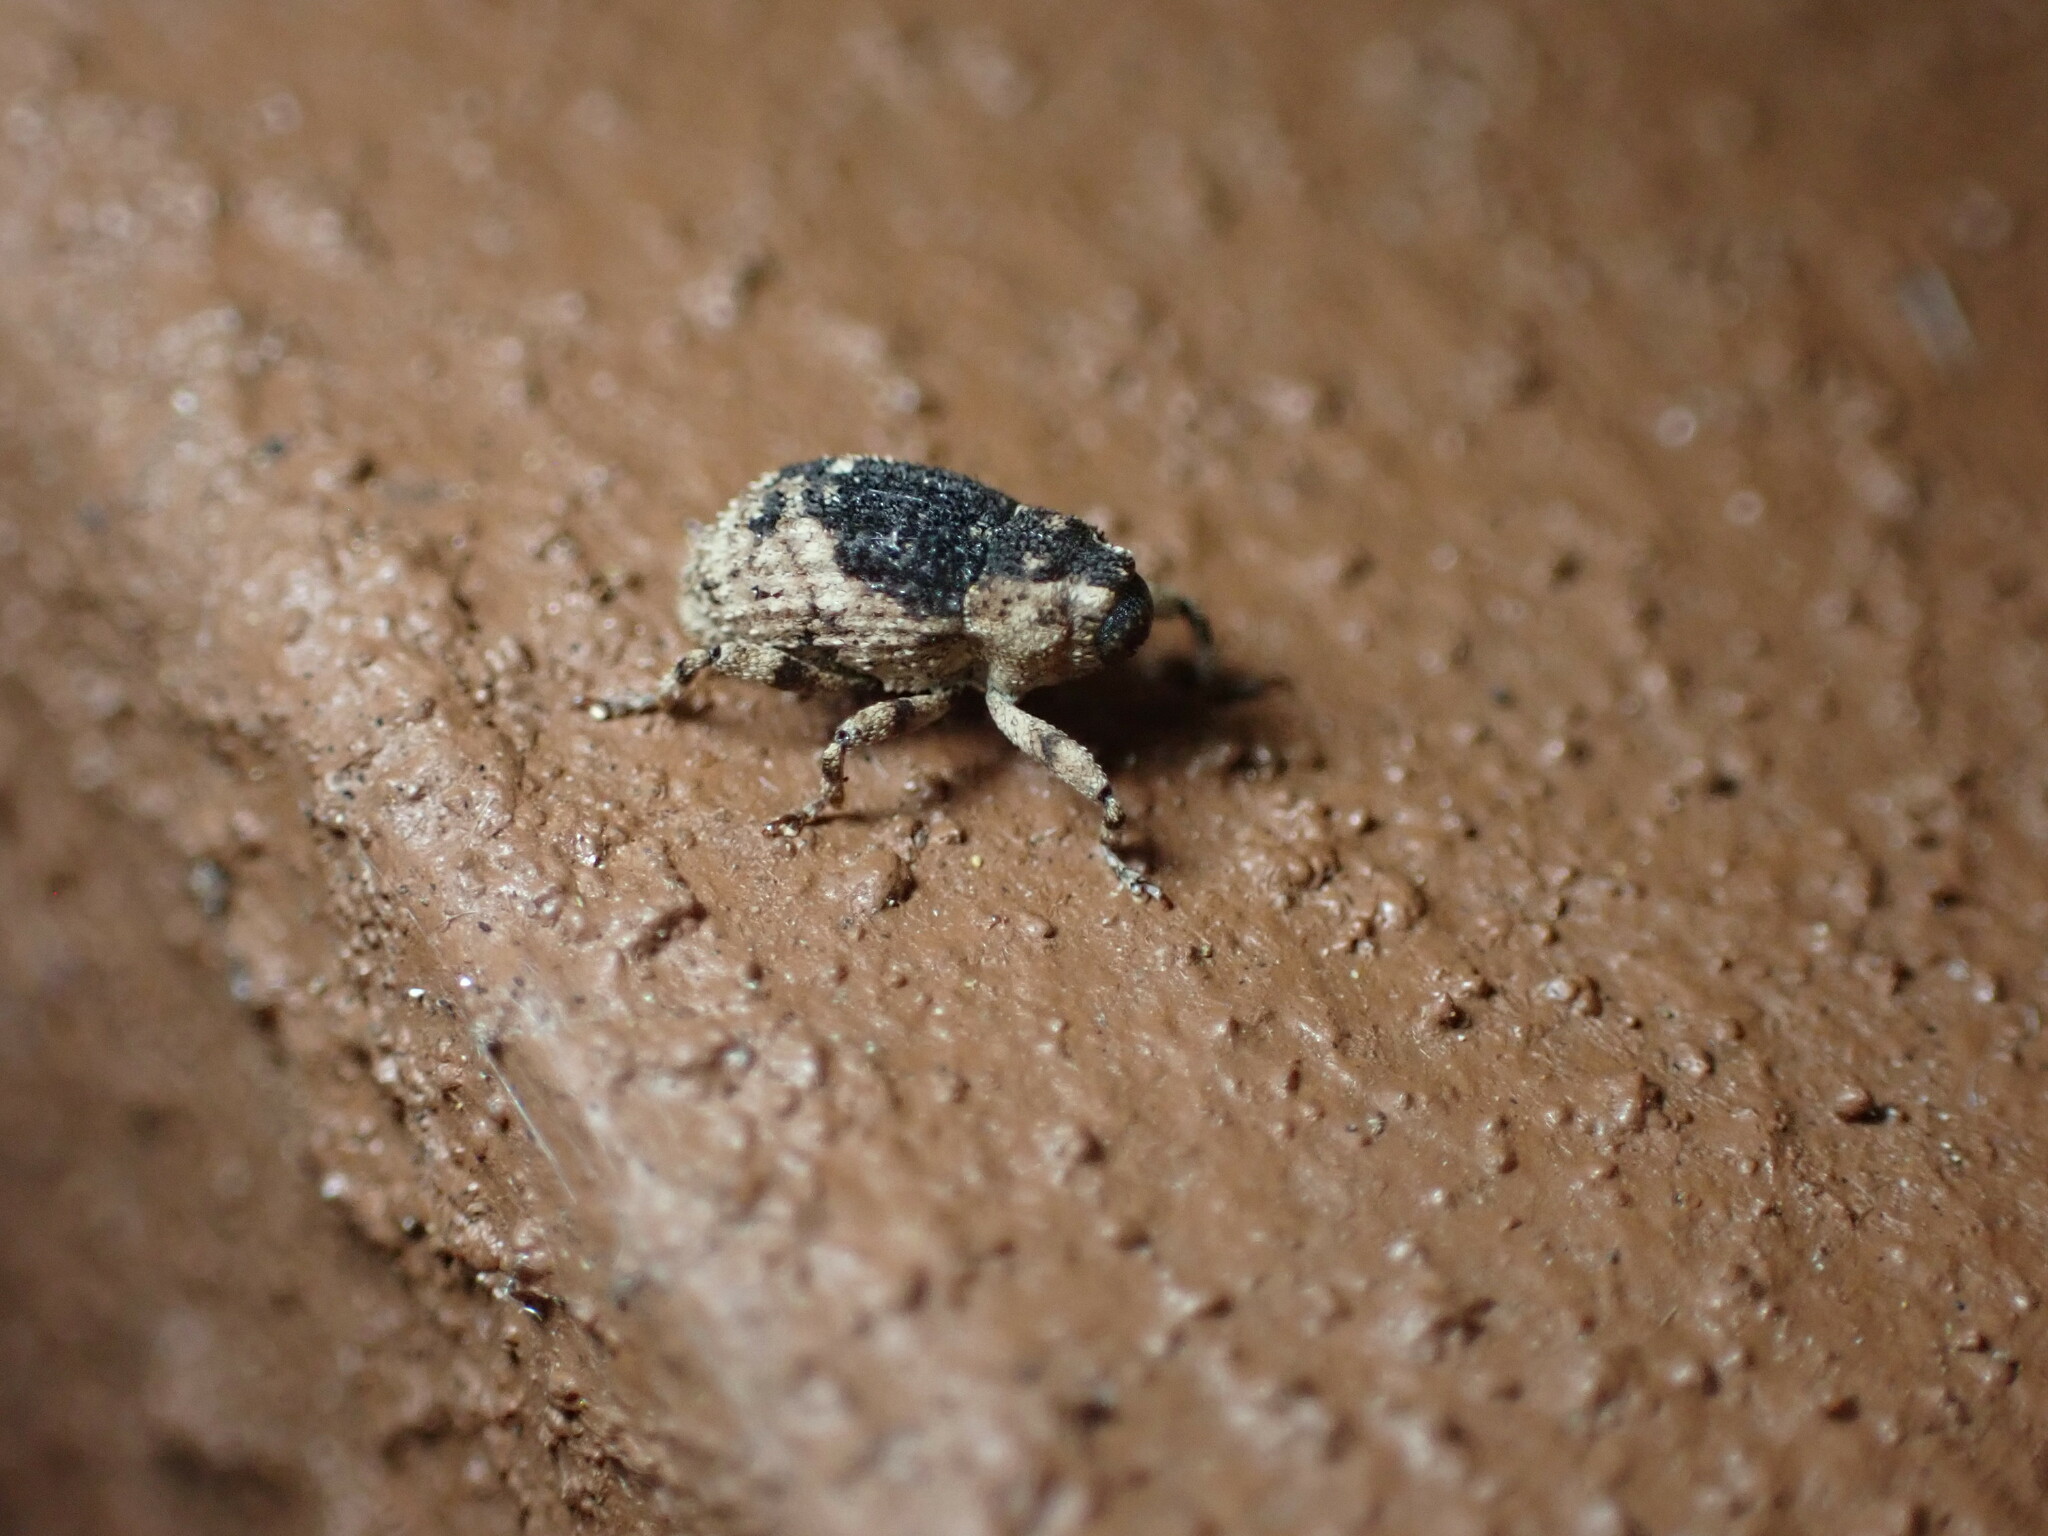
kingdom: Animalia
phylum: Arthropoda
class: Insecta
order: Coleoptera
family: Curculionidae
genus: Cophes
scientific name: Cophes fallax
